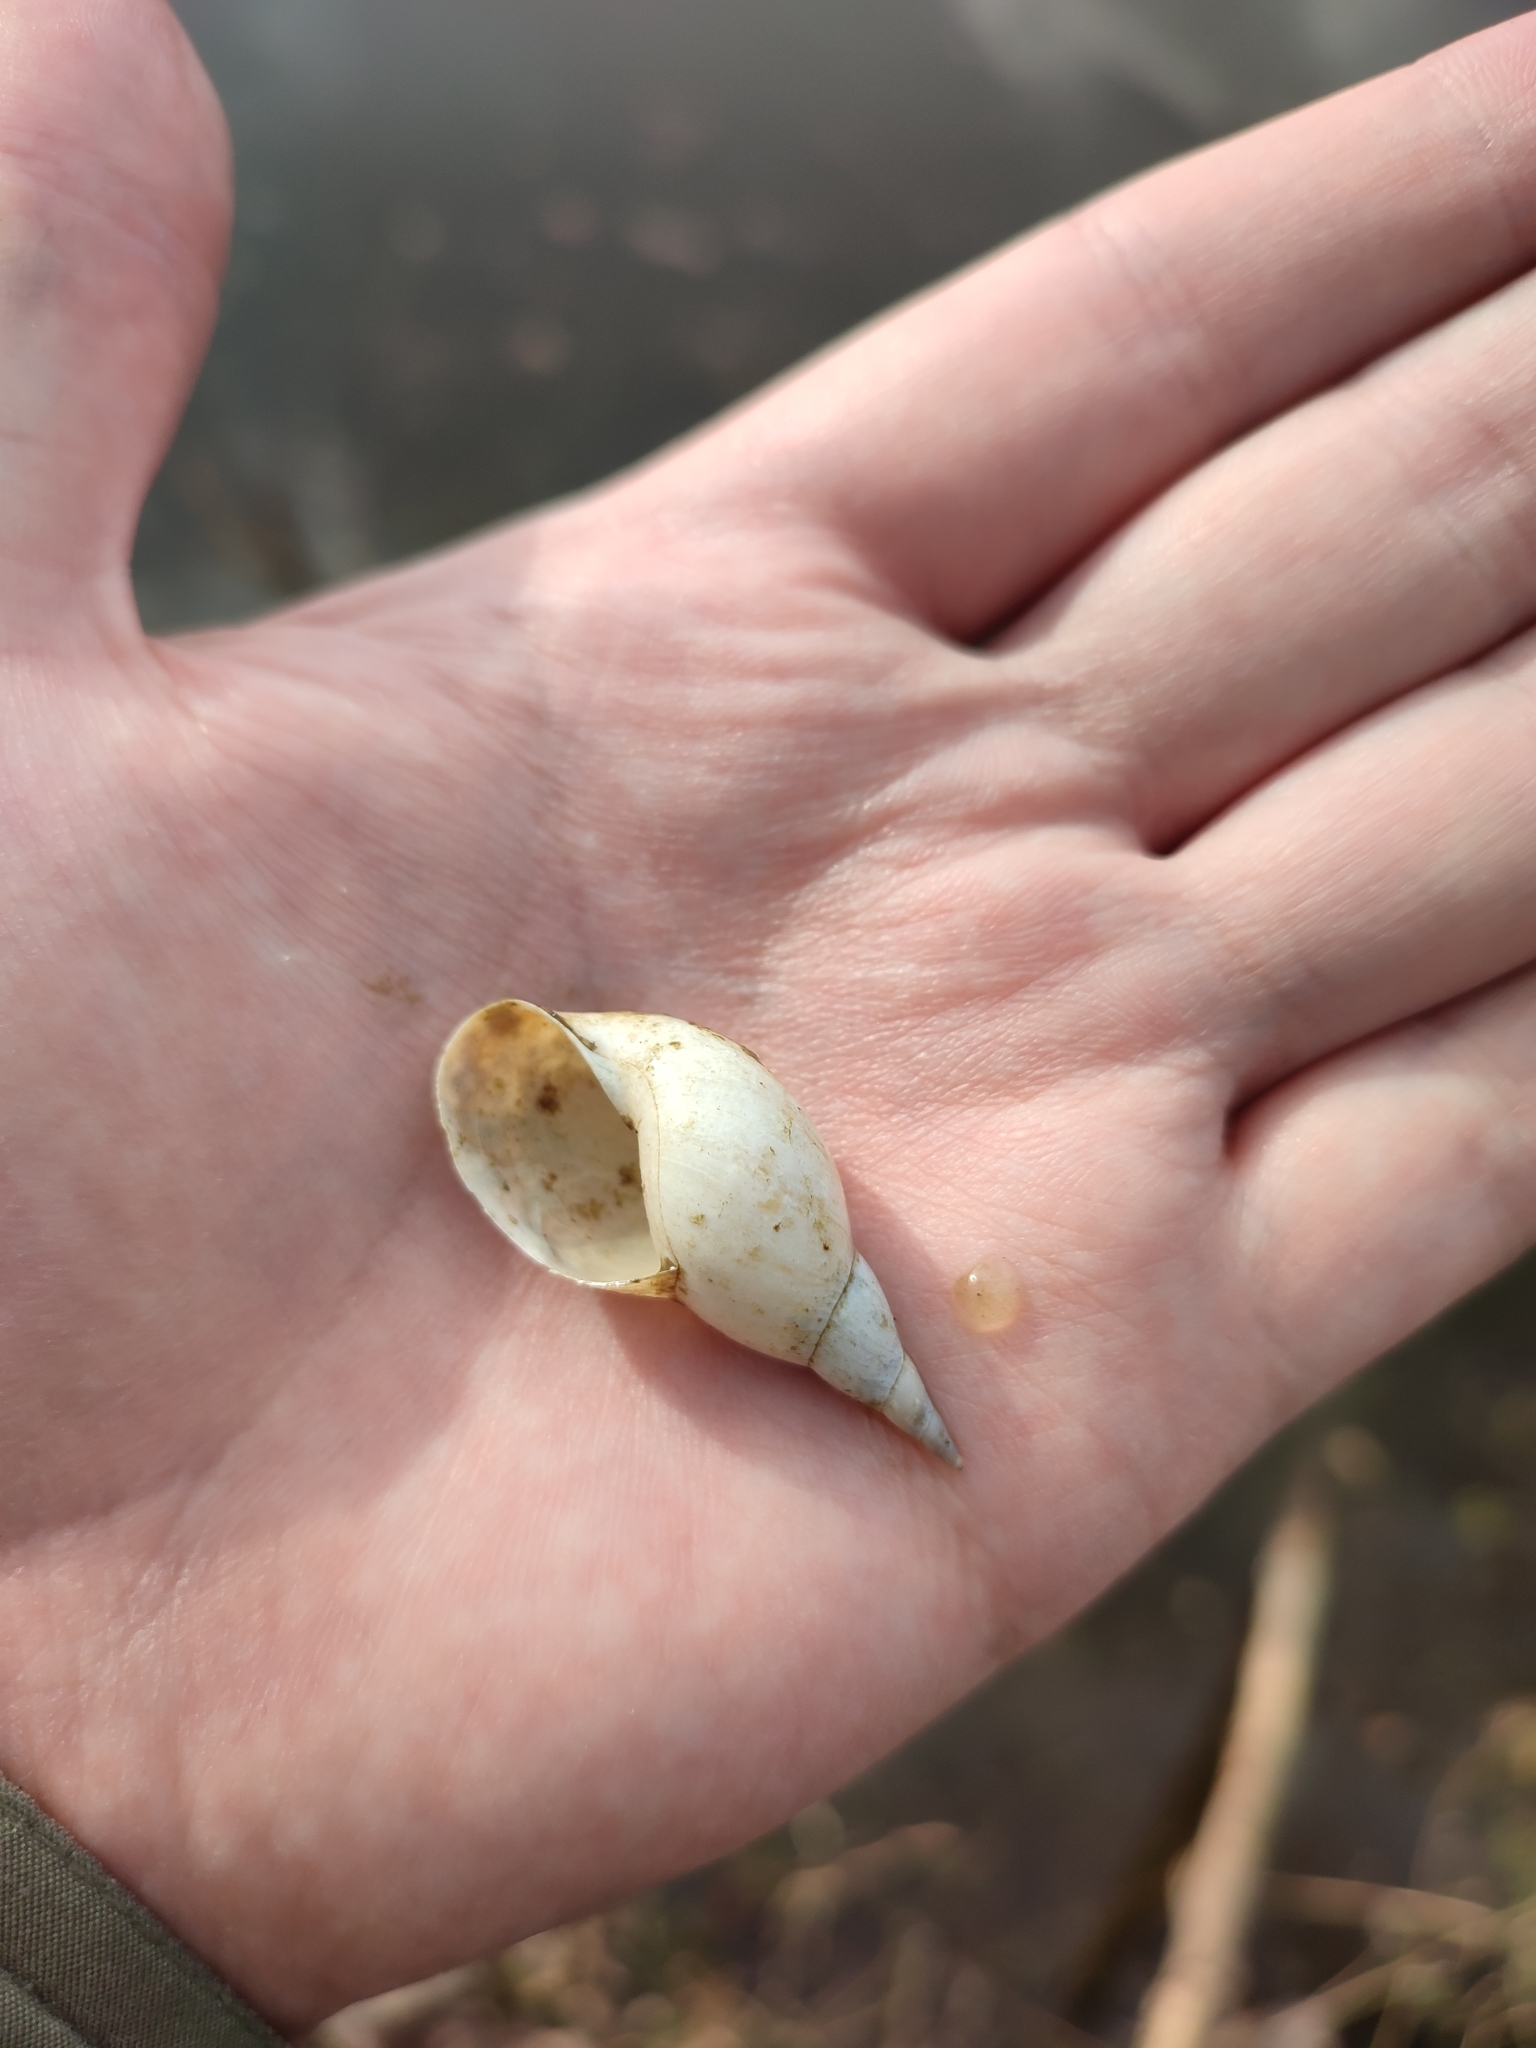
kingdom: Animalia
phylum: Mollusca
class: Gastropoda
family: Lymnaeidae
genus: Lymnaea
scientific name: Lymnaea stagnalis
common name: Great pond snail
